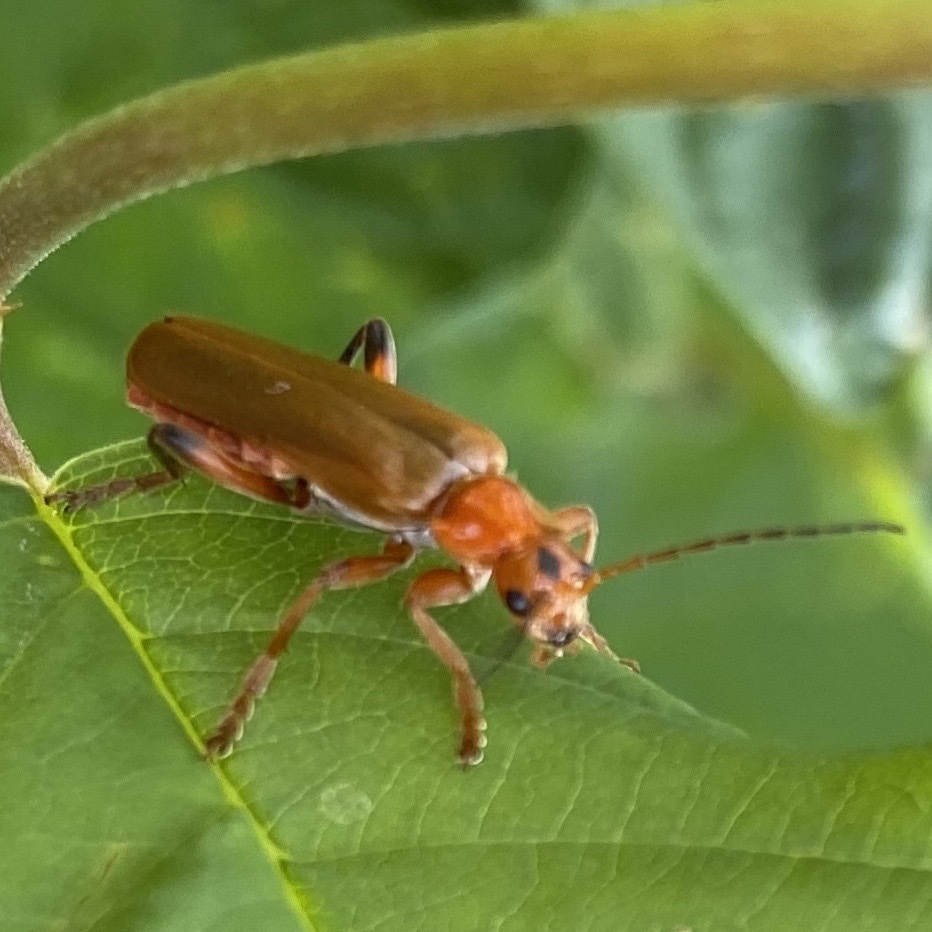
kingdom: Animalia
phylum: Arthropoda
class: Insecta
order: Coleoptera
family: Cantharidae
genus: Cantharis
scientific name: Cantharis livida
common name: Livid soldier beetle
